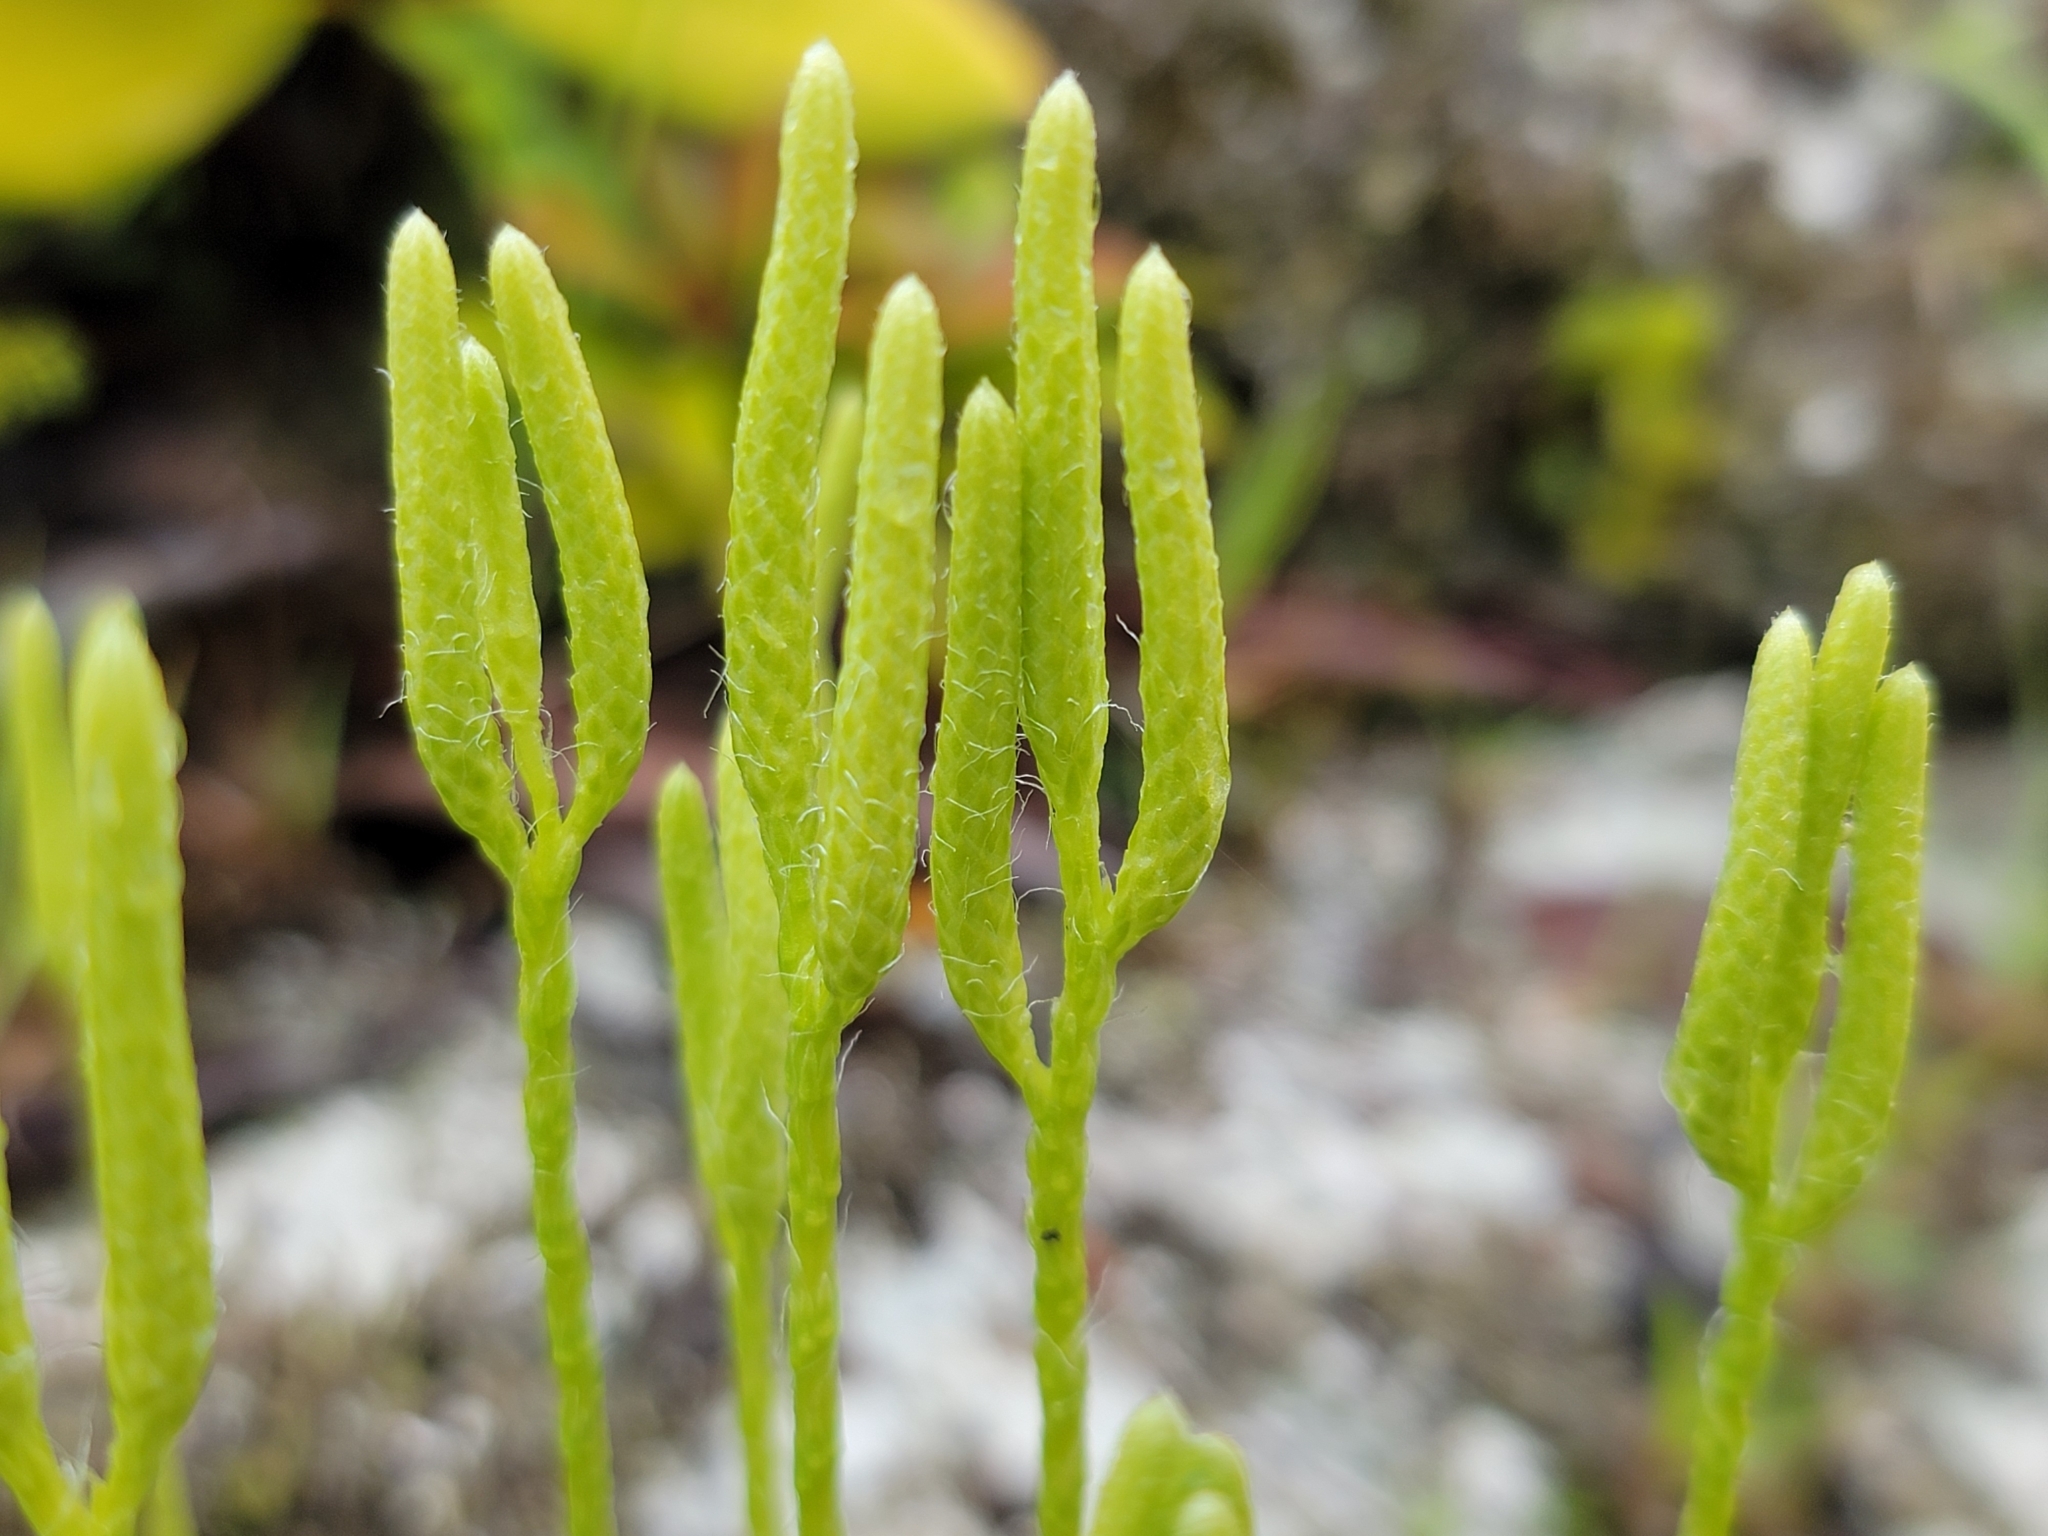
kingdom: Plantae
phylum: Tracheophyta
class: Lycopodiopsida
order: Lycopodiales
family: Lycopodiaceae
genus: Lycopodium
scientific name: Lycopodium clavatum
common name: Stag's-horn clubmoss
